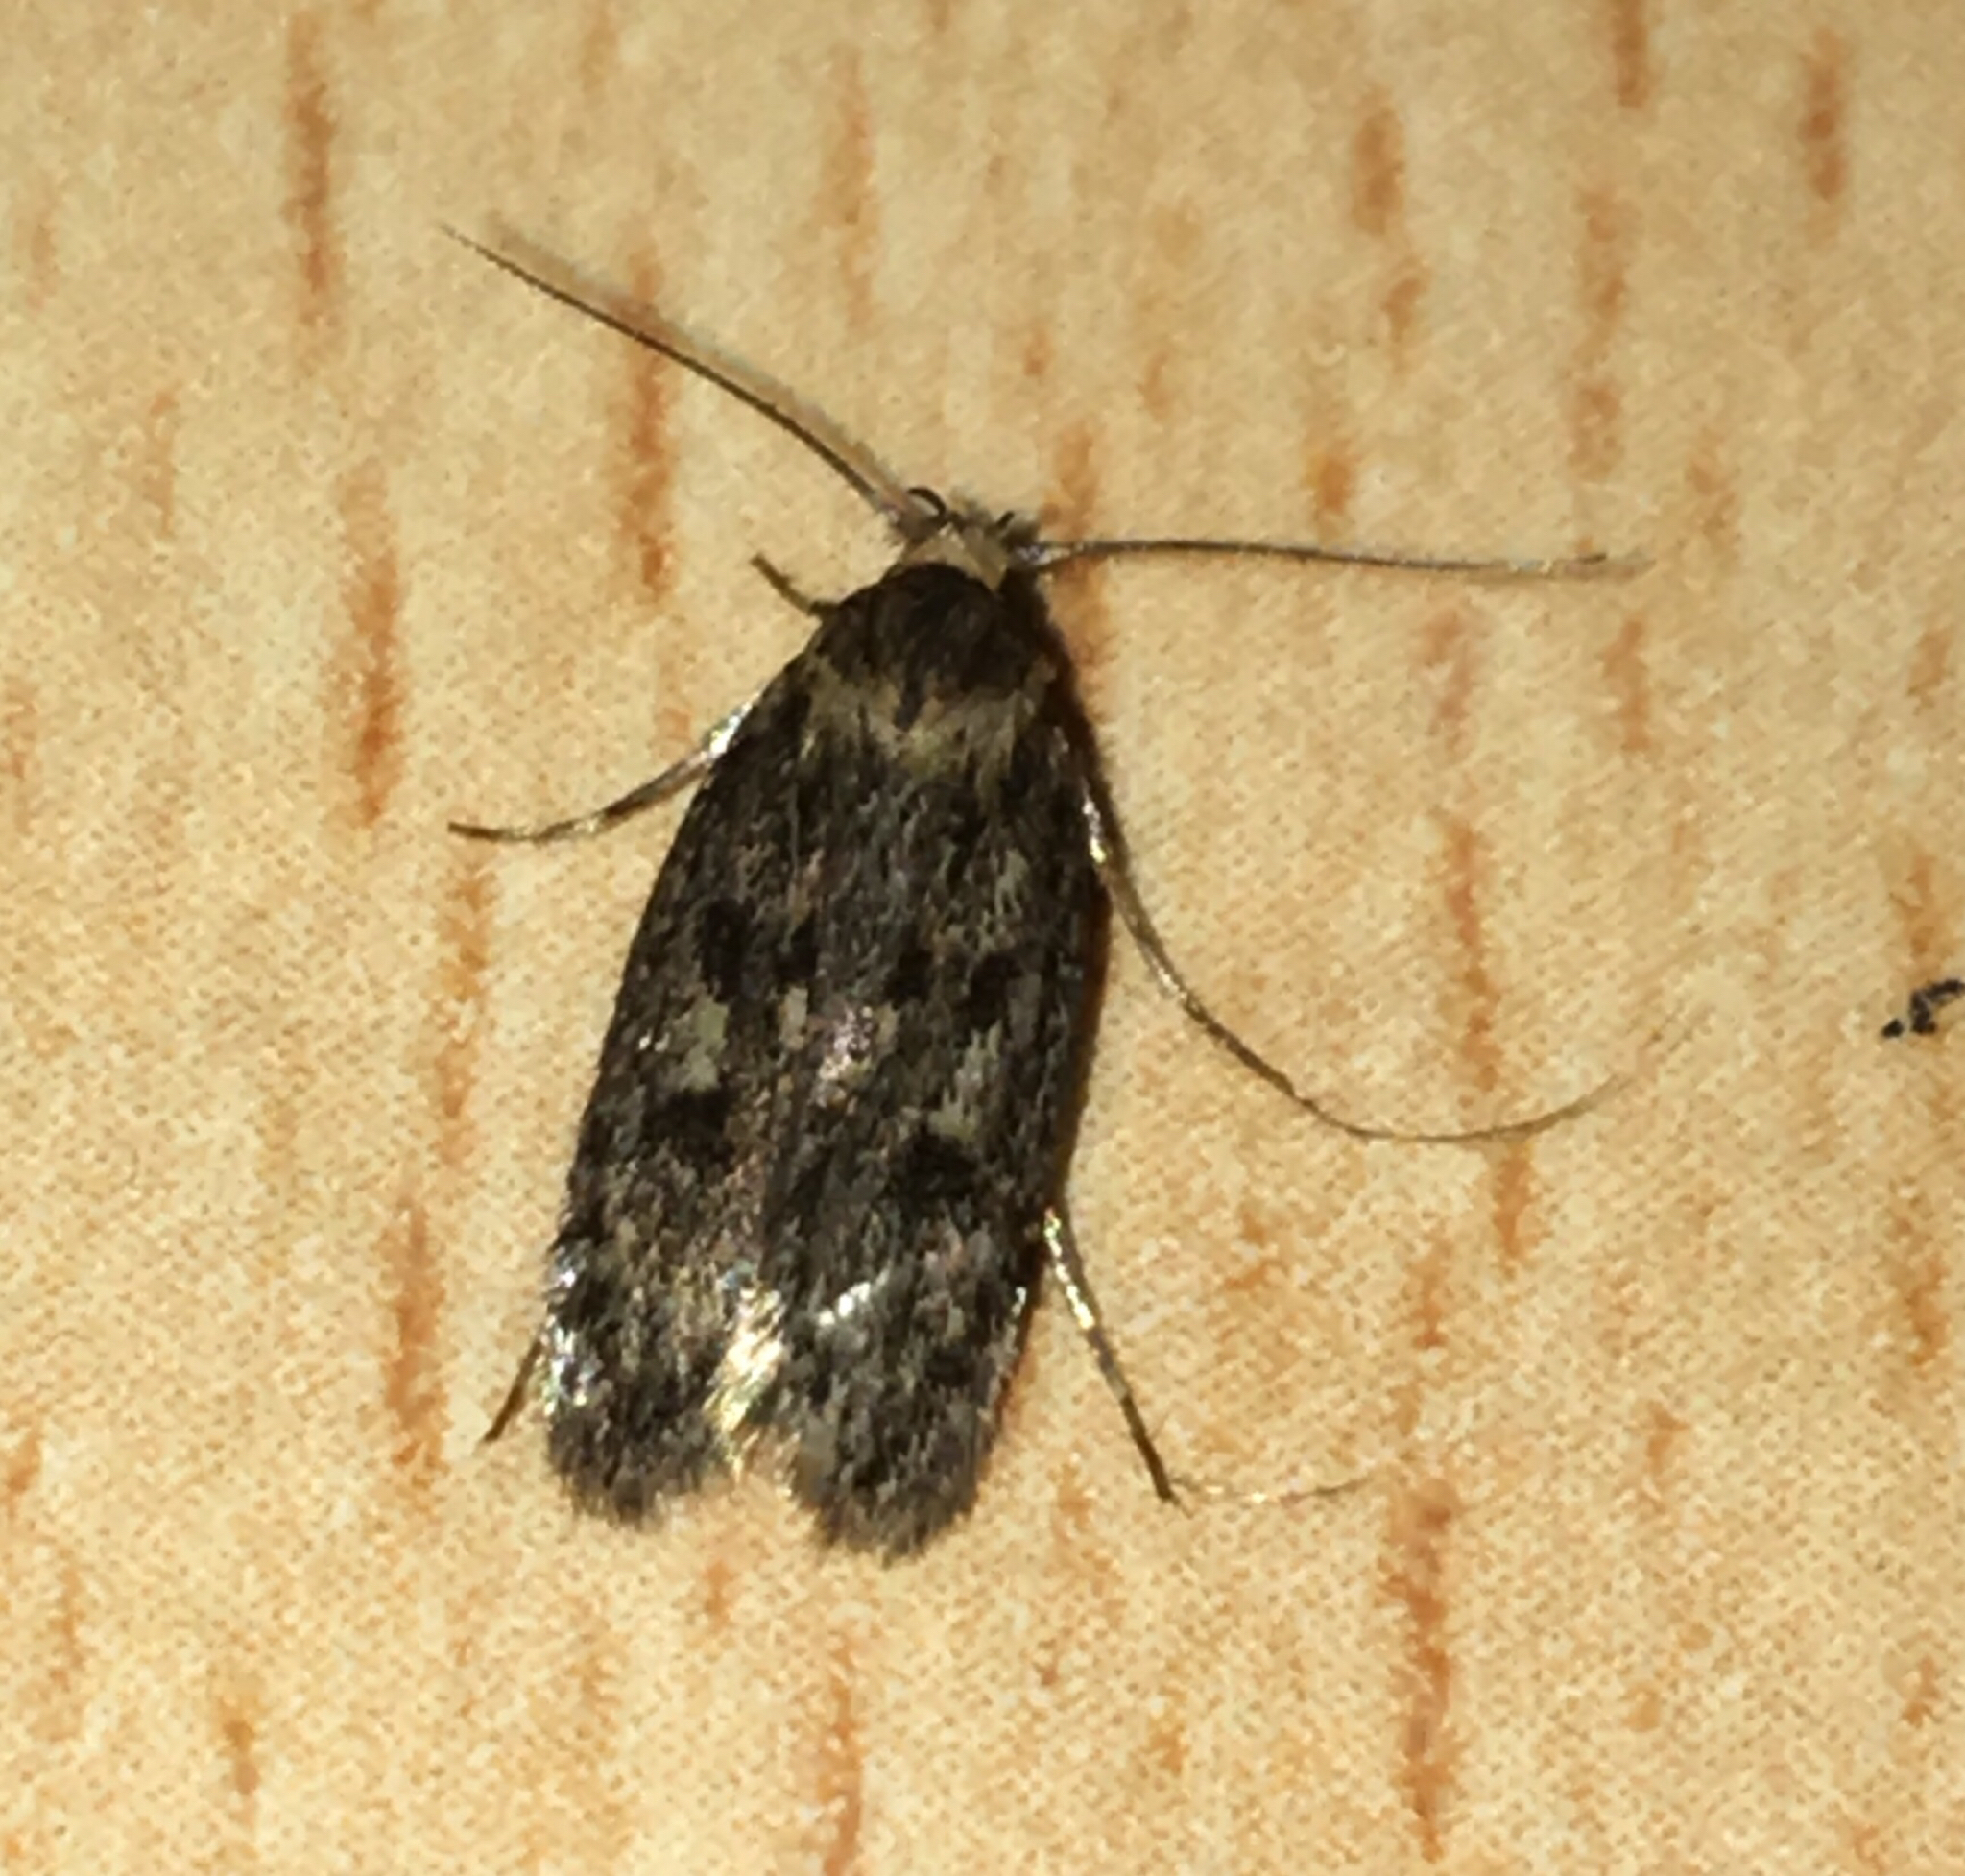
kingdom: Animalia
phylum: Arthropoda
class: Insecta
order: Lepidoptera
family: Oecophoridae
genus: Hofmannophila
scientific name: Hofmannophila pseudospretella
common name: Brown house moth
